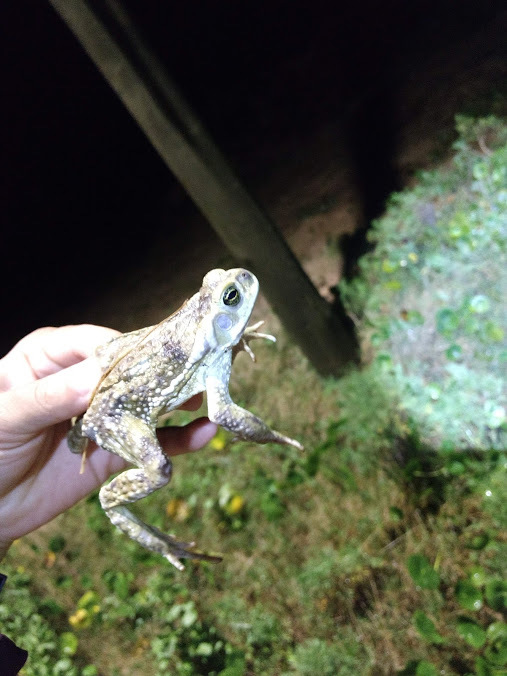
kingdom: Animalia
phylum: Chordata
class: Amphibia
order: Anura
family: Bufonidae
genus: Rhinella
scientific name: Rhinella arenarum
